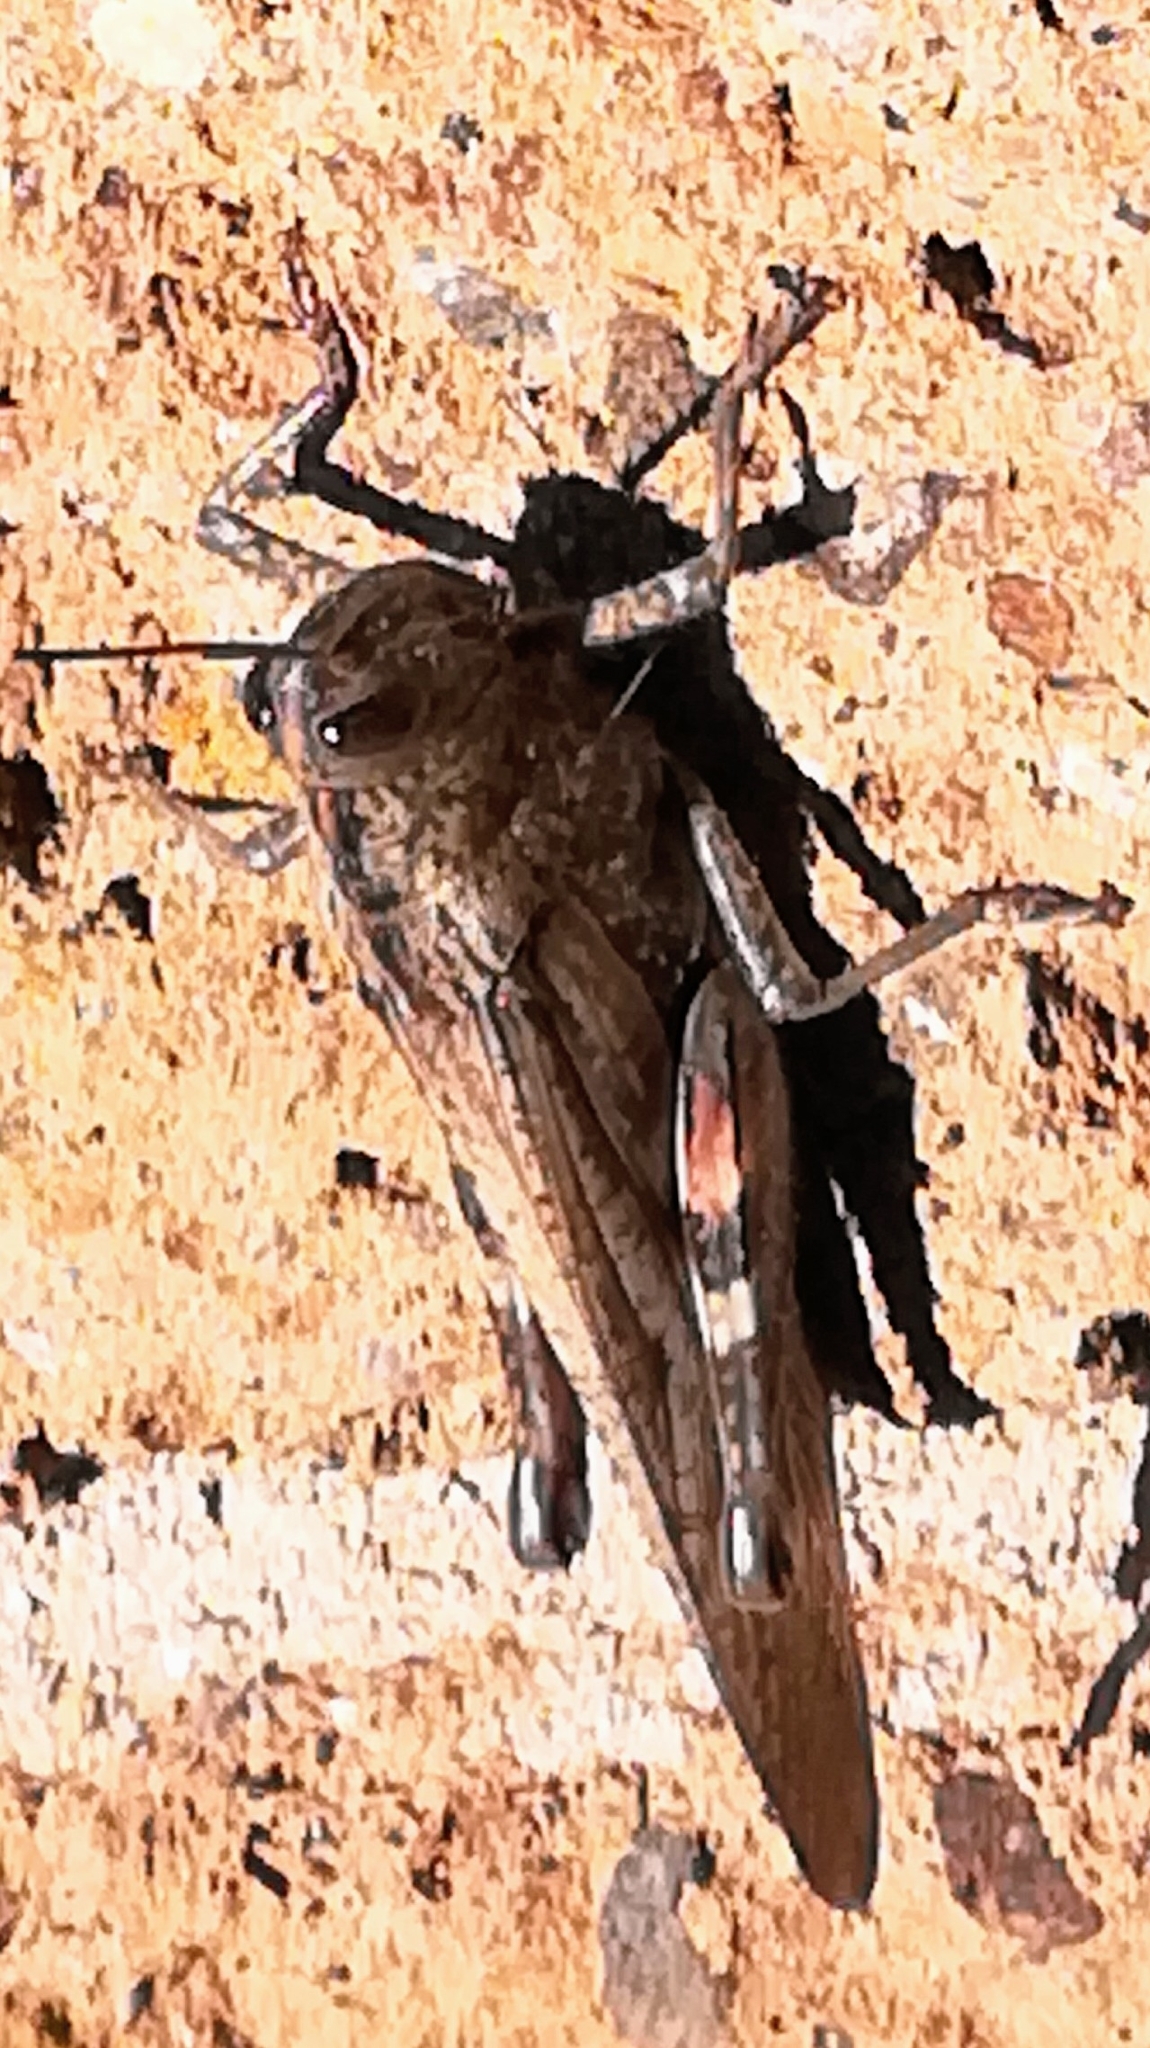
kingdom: Animalia
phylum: Arthropoda
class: Insecta
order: Orthoptera
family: Acrididae
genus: Anacridium
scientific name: Anacridium aegyptium
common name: Egyptian grasshopper
